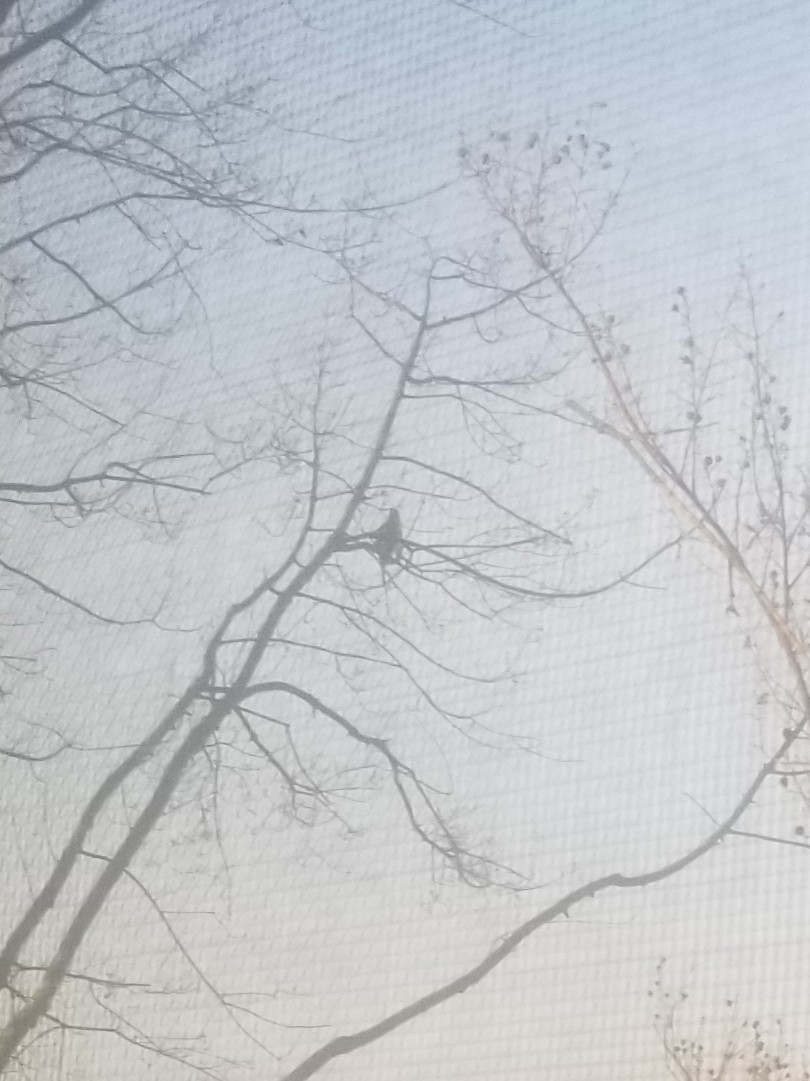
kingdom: Animalia
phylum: Chordata
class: Aves
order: Accipitriformes
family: Accipitridae
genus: Accipiter
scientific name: Accipiter
